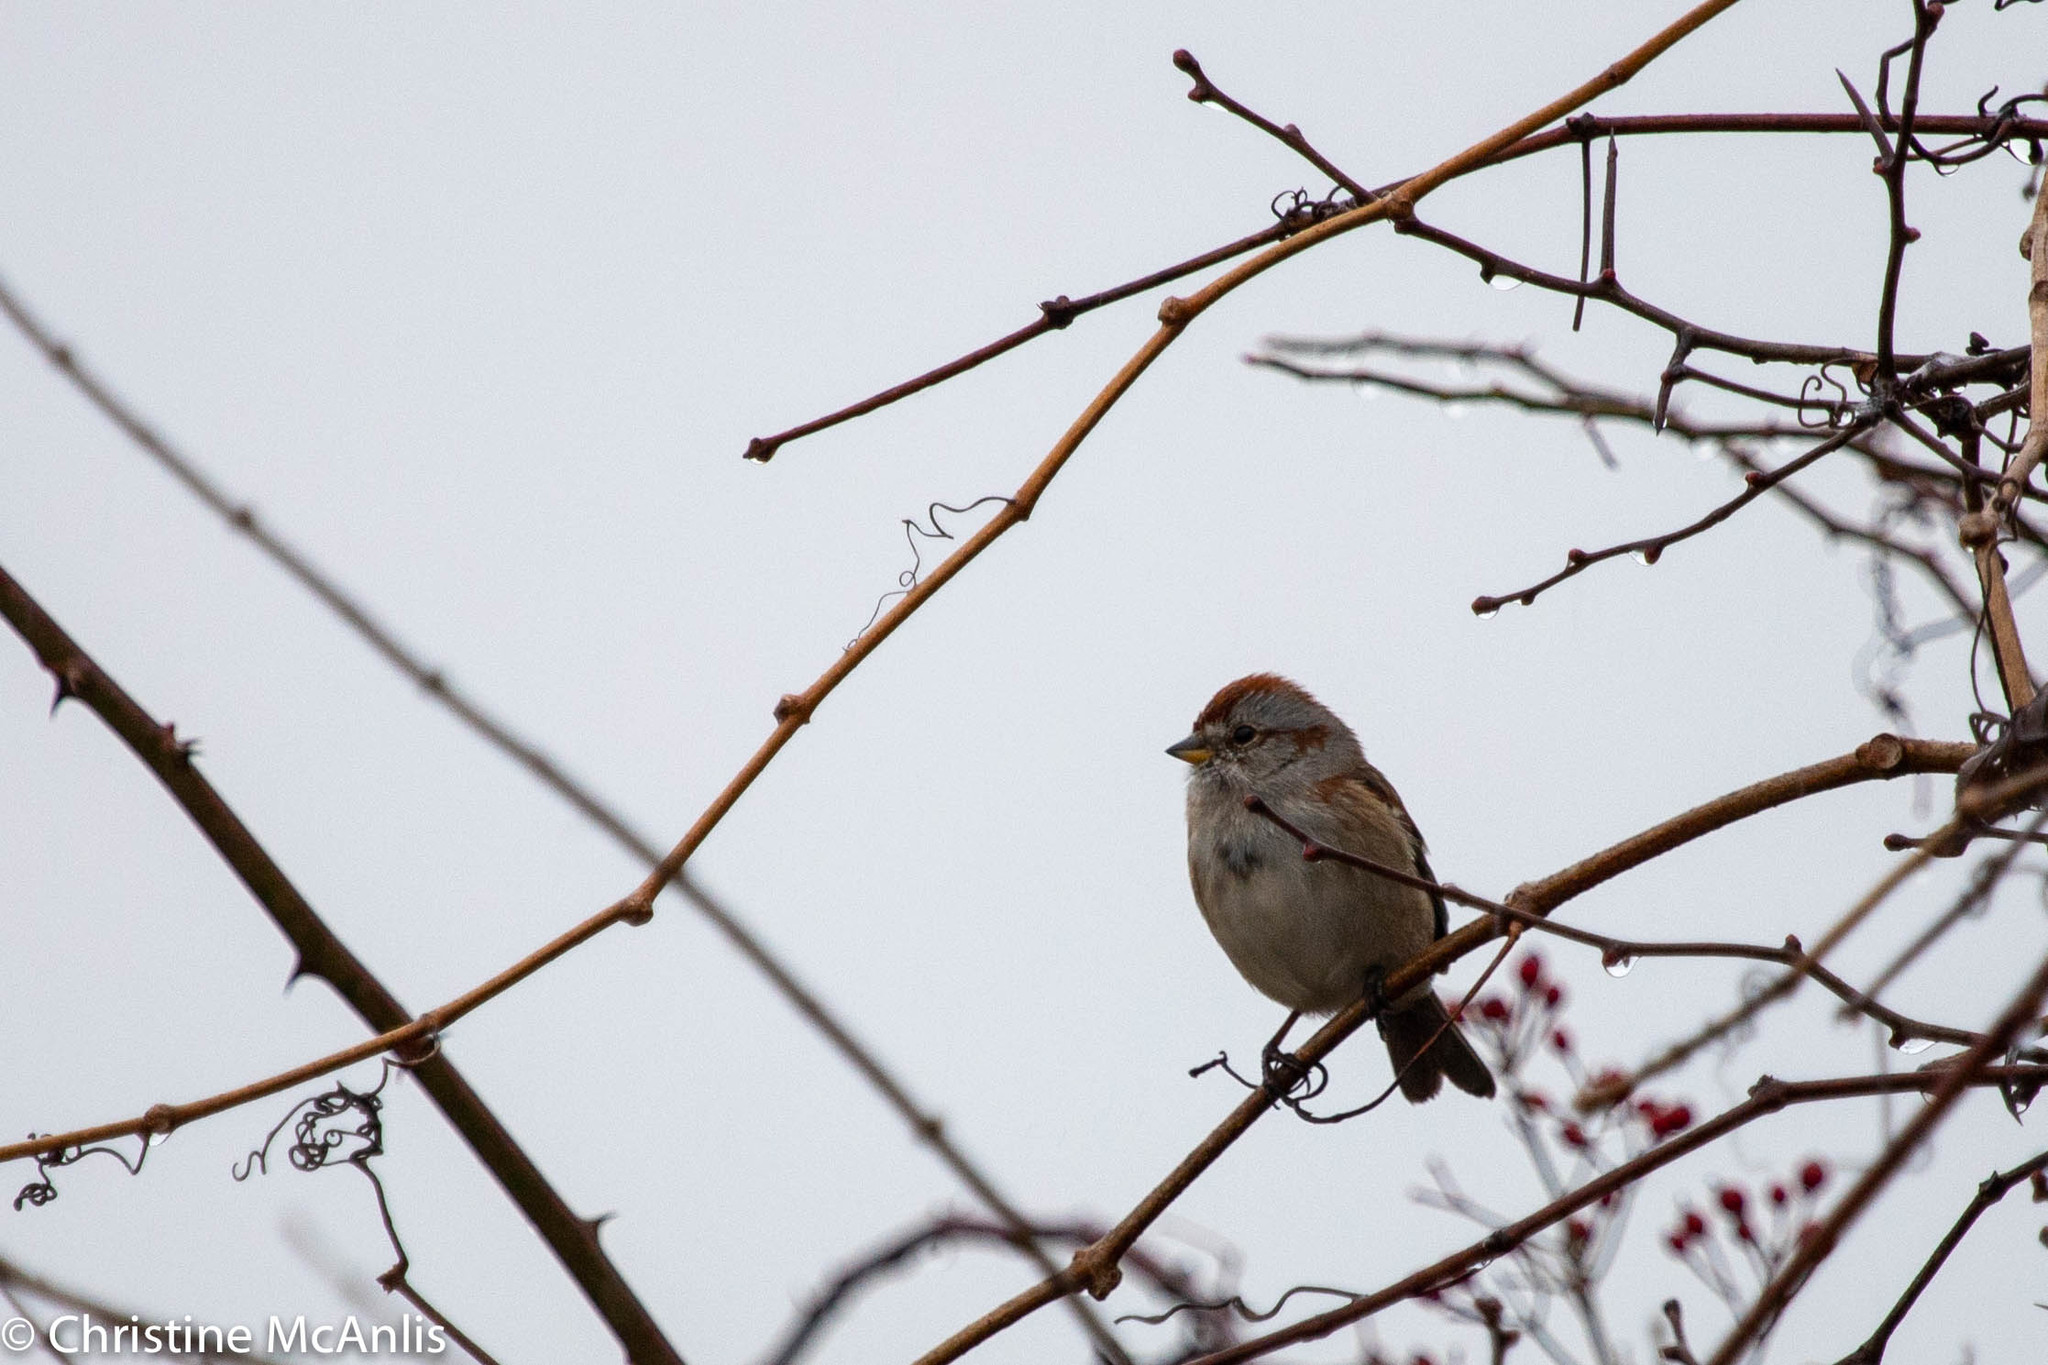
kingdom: Animalia
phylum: Chordata
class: Aves
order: Passeriformes
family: Passerellidae
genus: Spizelloides
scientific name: Spizelloides arborea
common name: American tree sparrow
